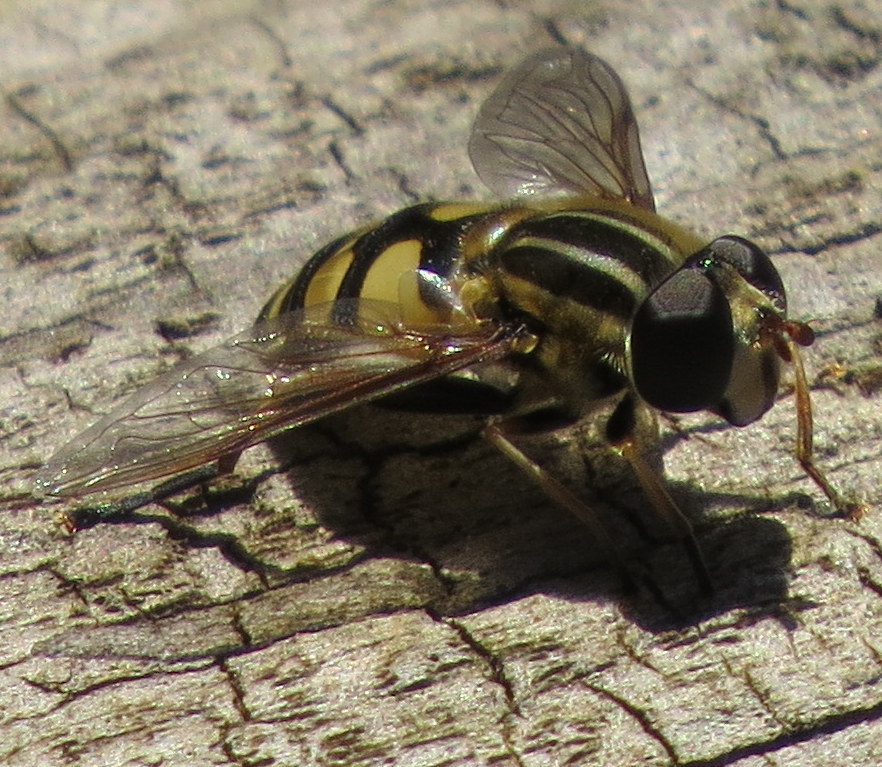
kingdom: Animalia
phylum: Arthropoda
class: Insecta
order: Diptera
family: Syrphidae
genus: Helophilus
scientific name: Helophilus fasciatus
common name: Narrow-headed marsh fly
